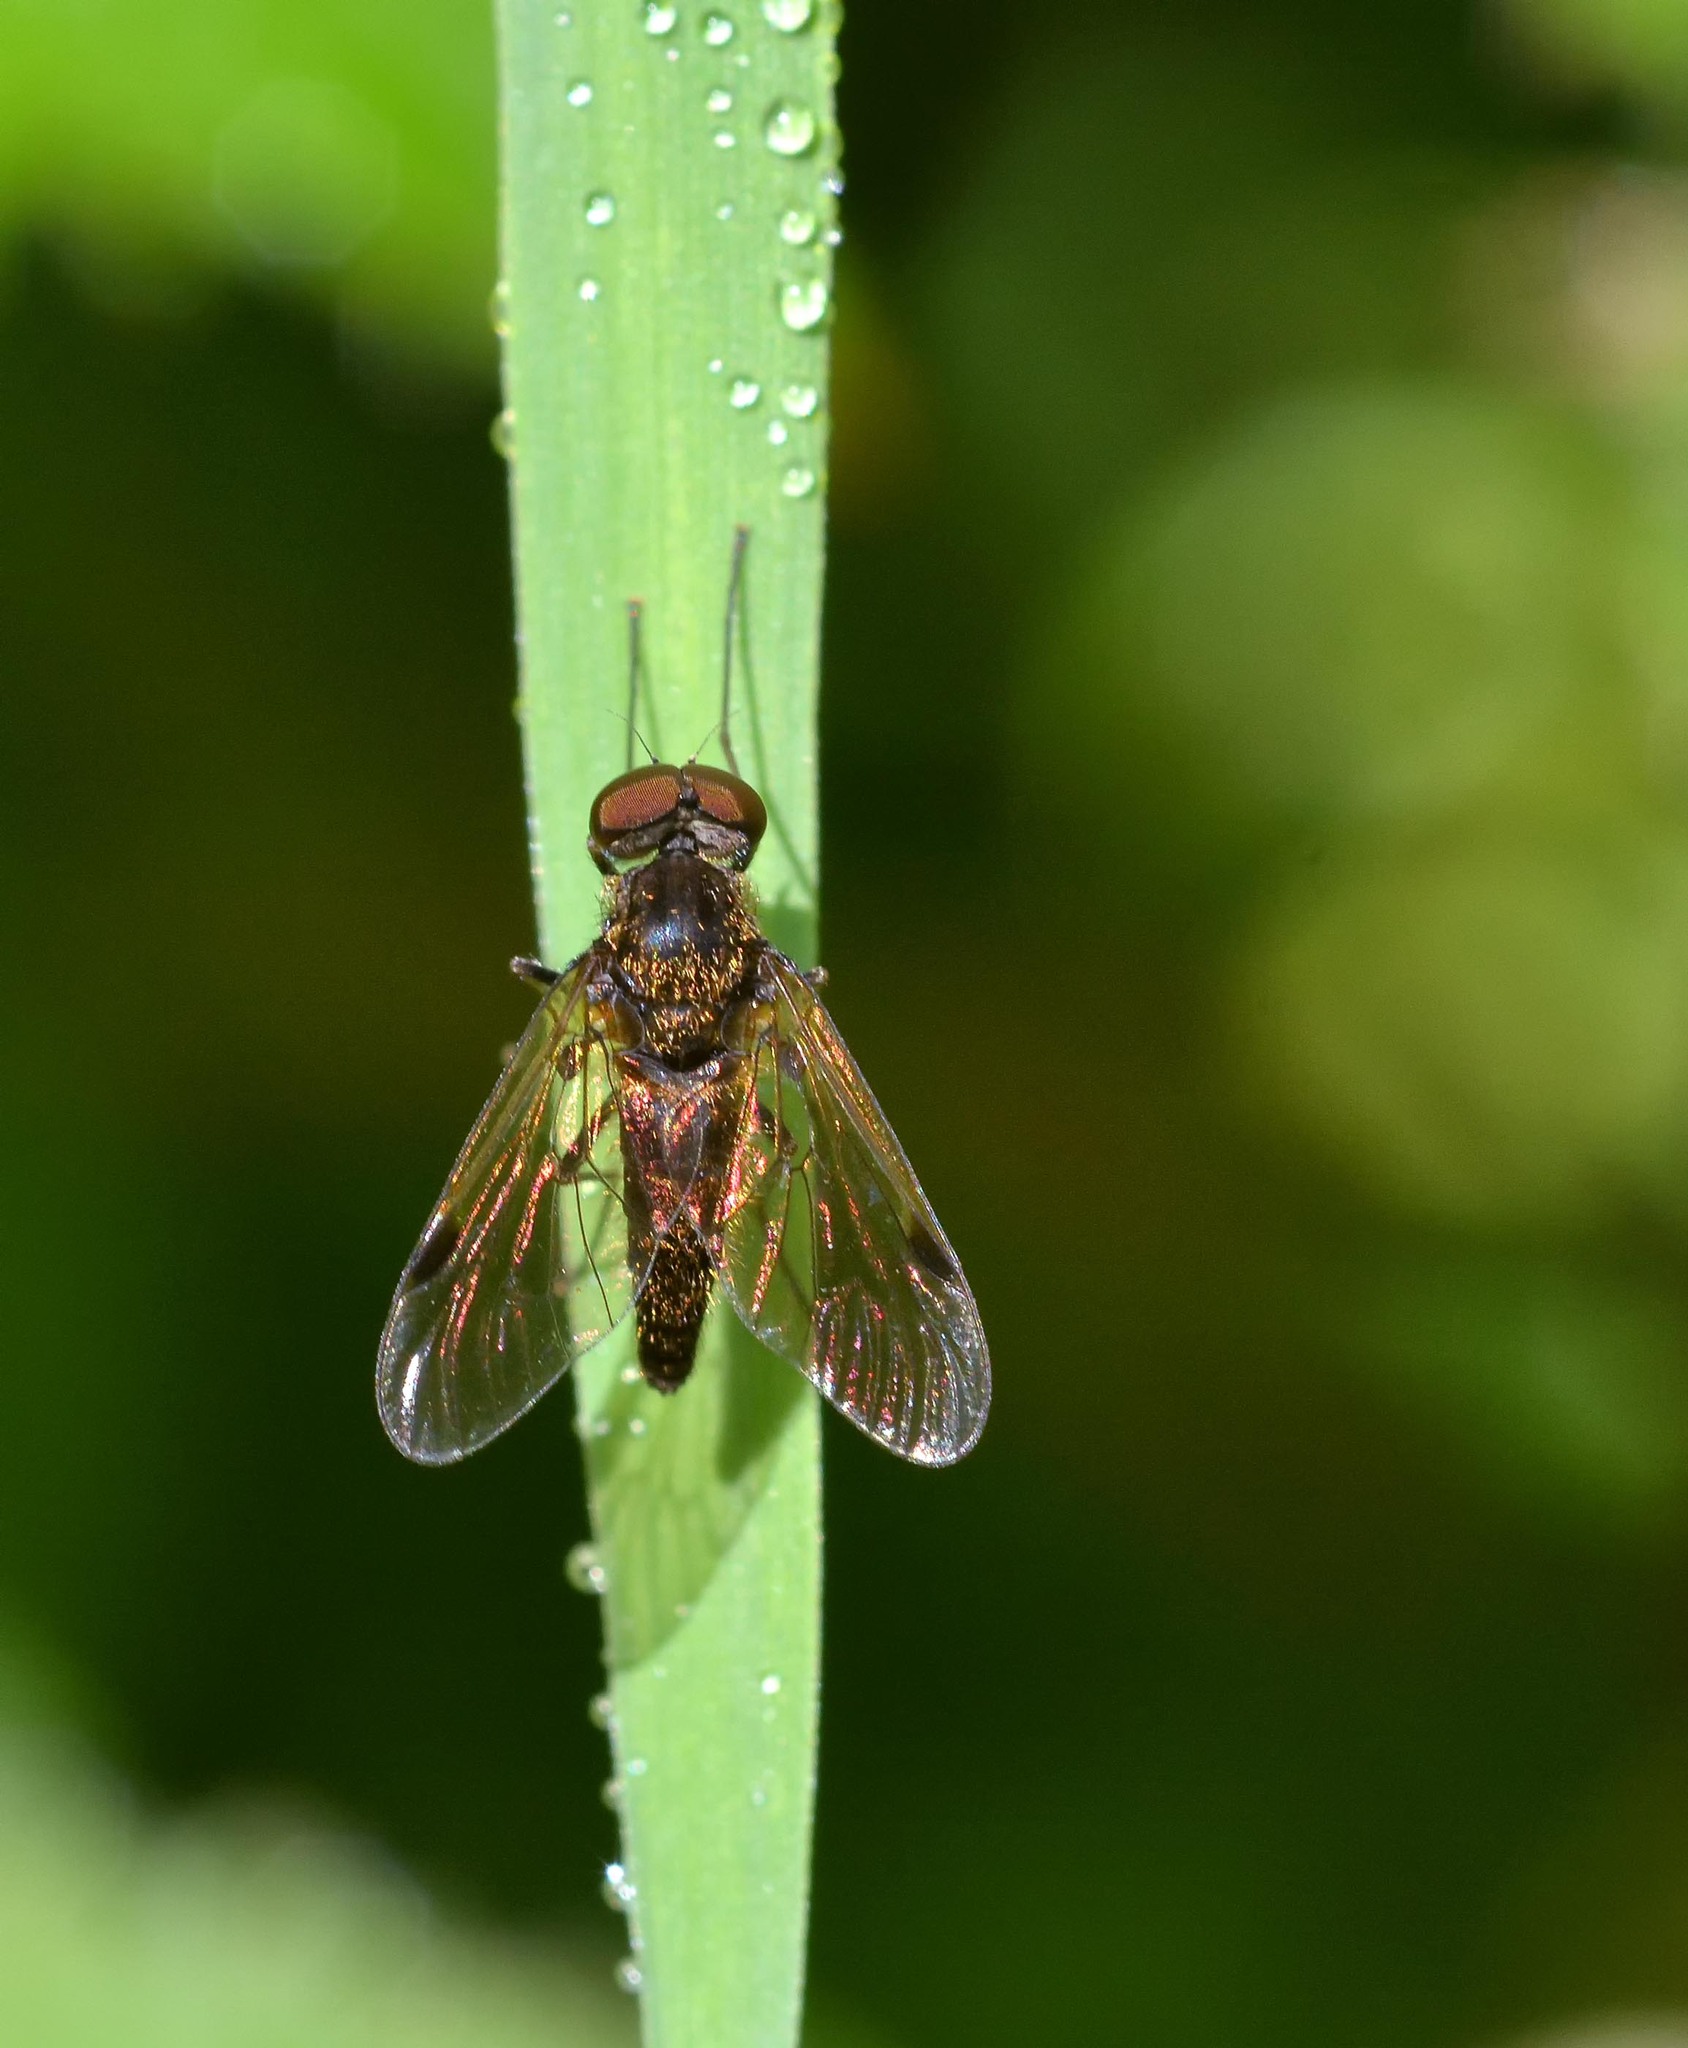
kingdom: Animalia
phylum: Arthropoda
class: Insecta
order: Diptera
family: Rhagionidae
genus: Chrysopilus
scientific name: Chrysopilus cristatus
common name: Black snipefly
